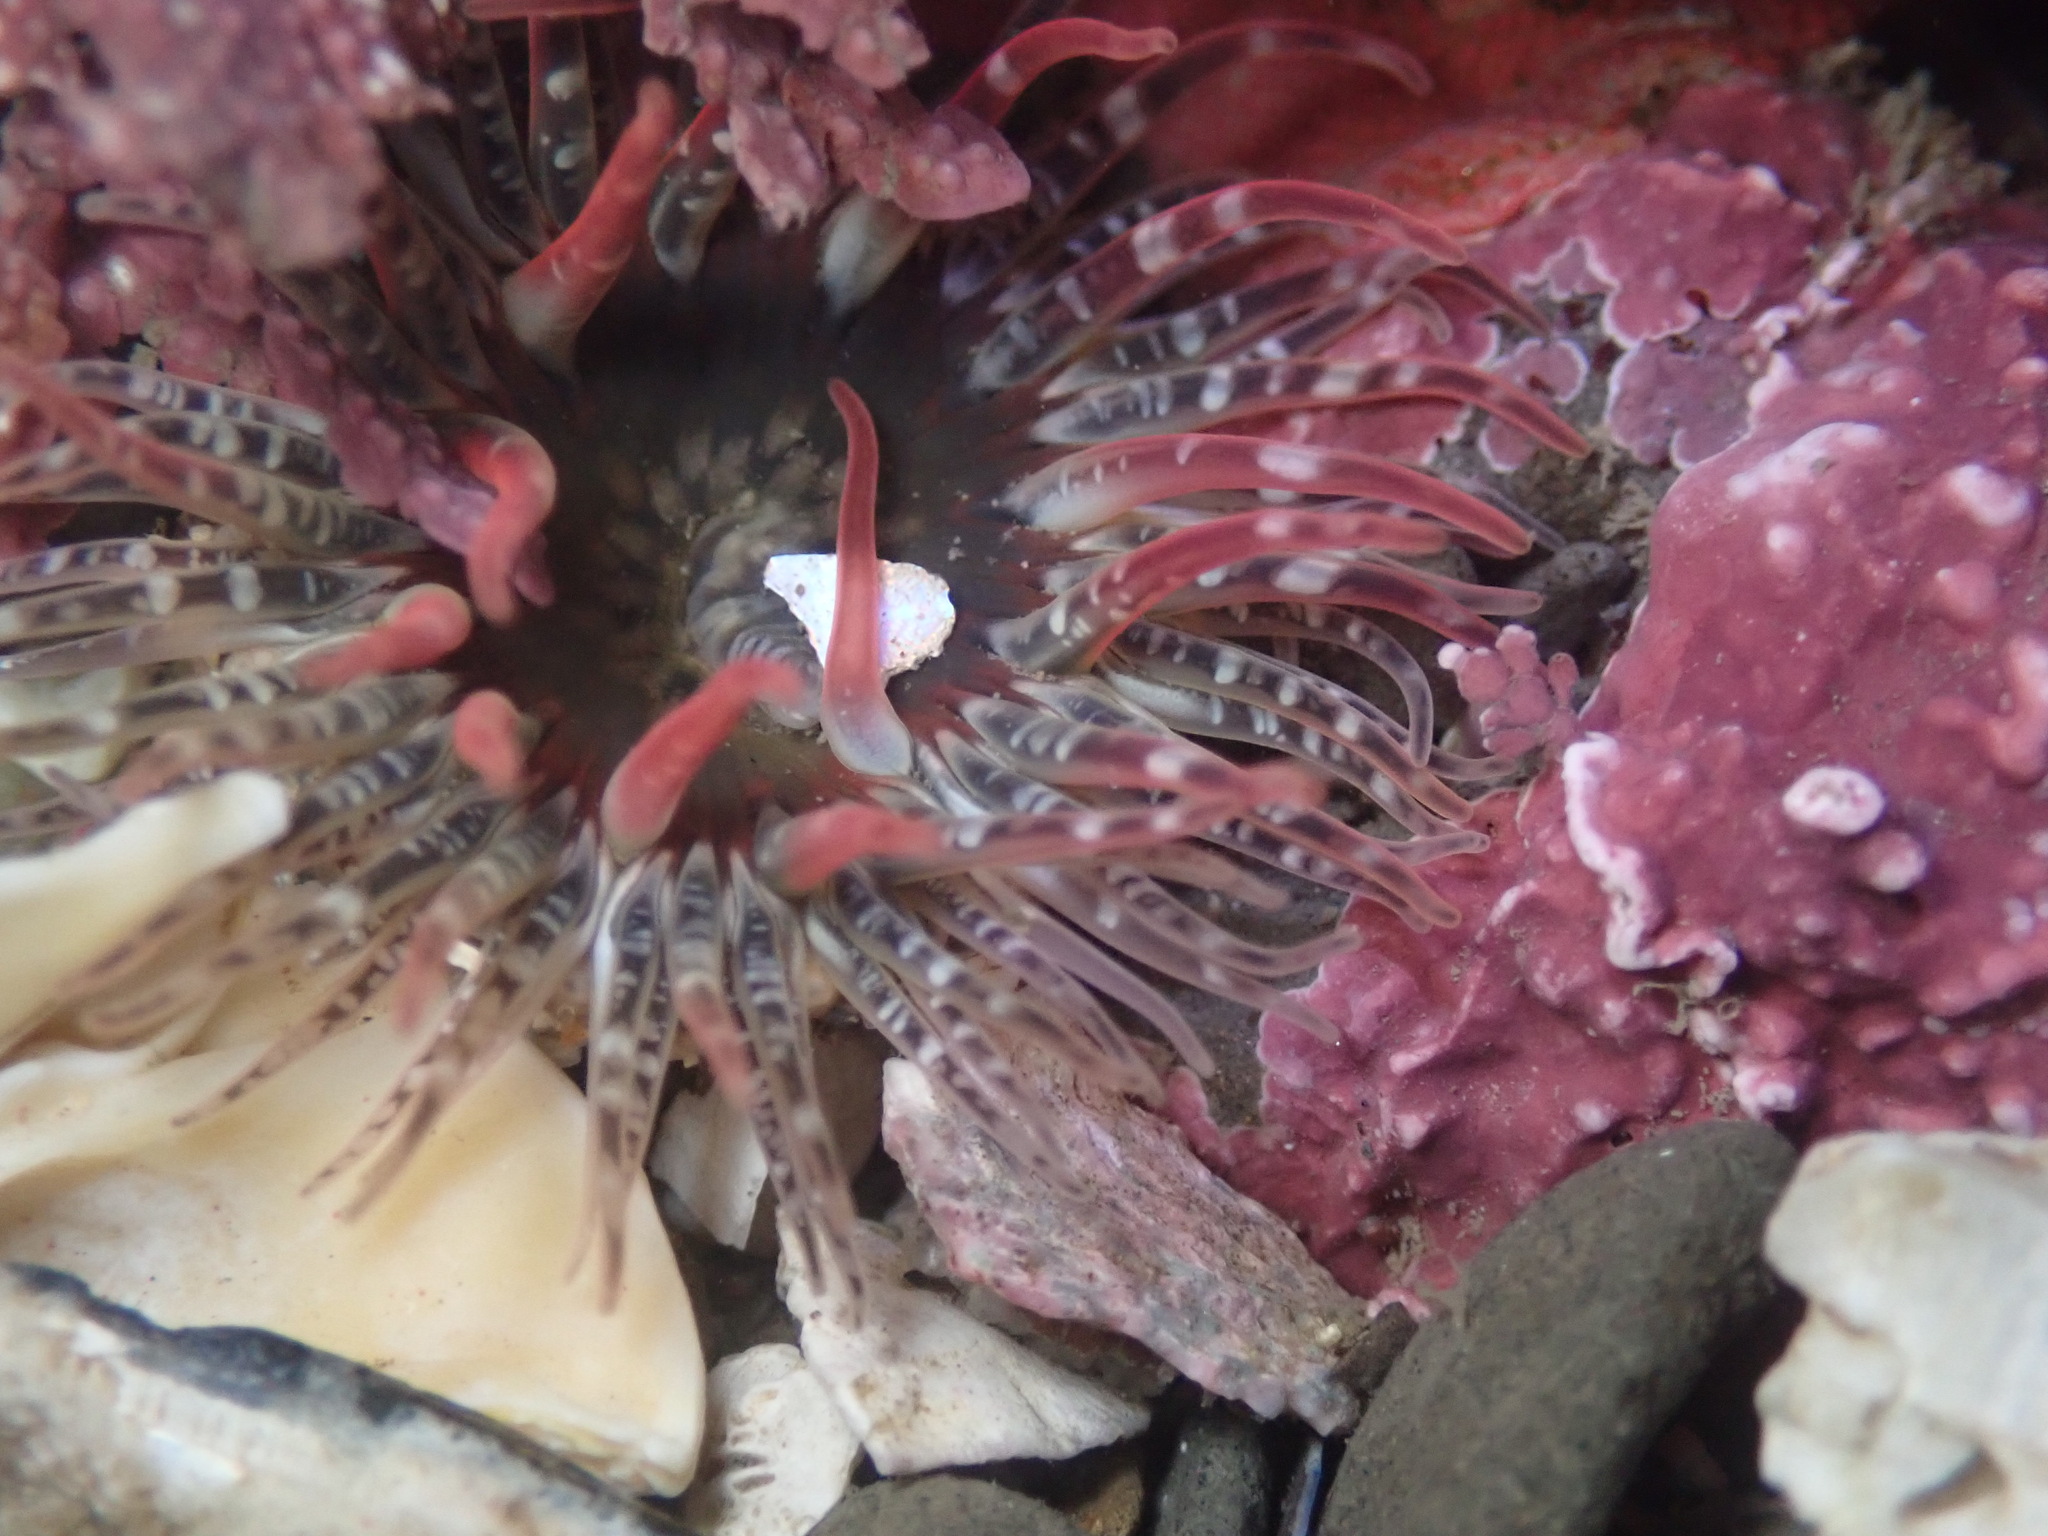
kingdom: Animalia
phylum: Cnidaria
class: Anthozoa
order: Actiniaria
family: Actiniidae
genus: Anthopleura
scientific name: Anthopleura artemisia
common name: Buried sea anemone
